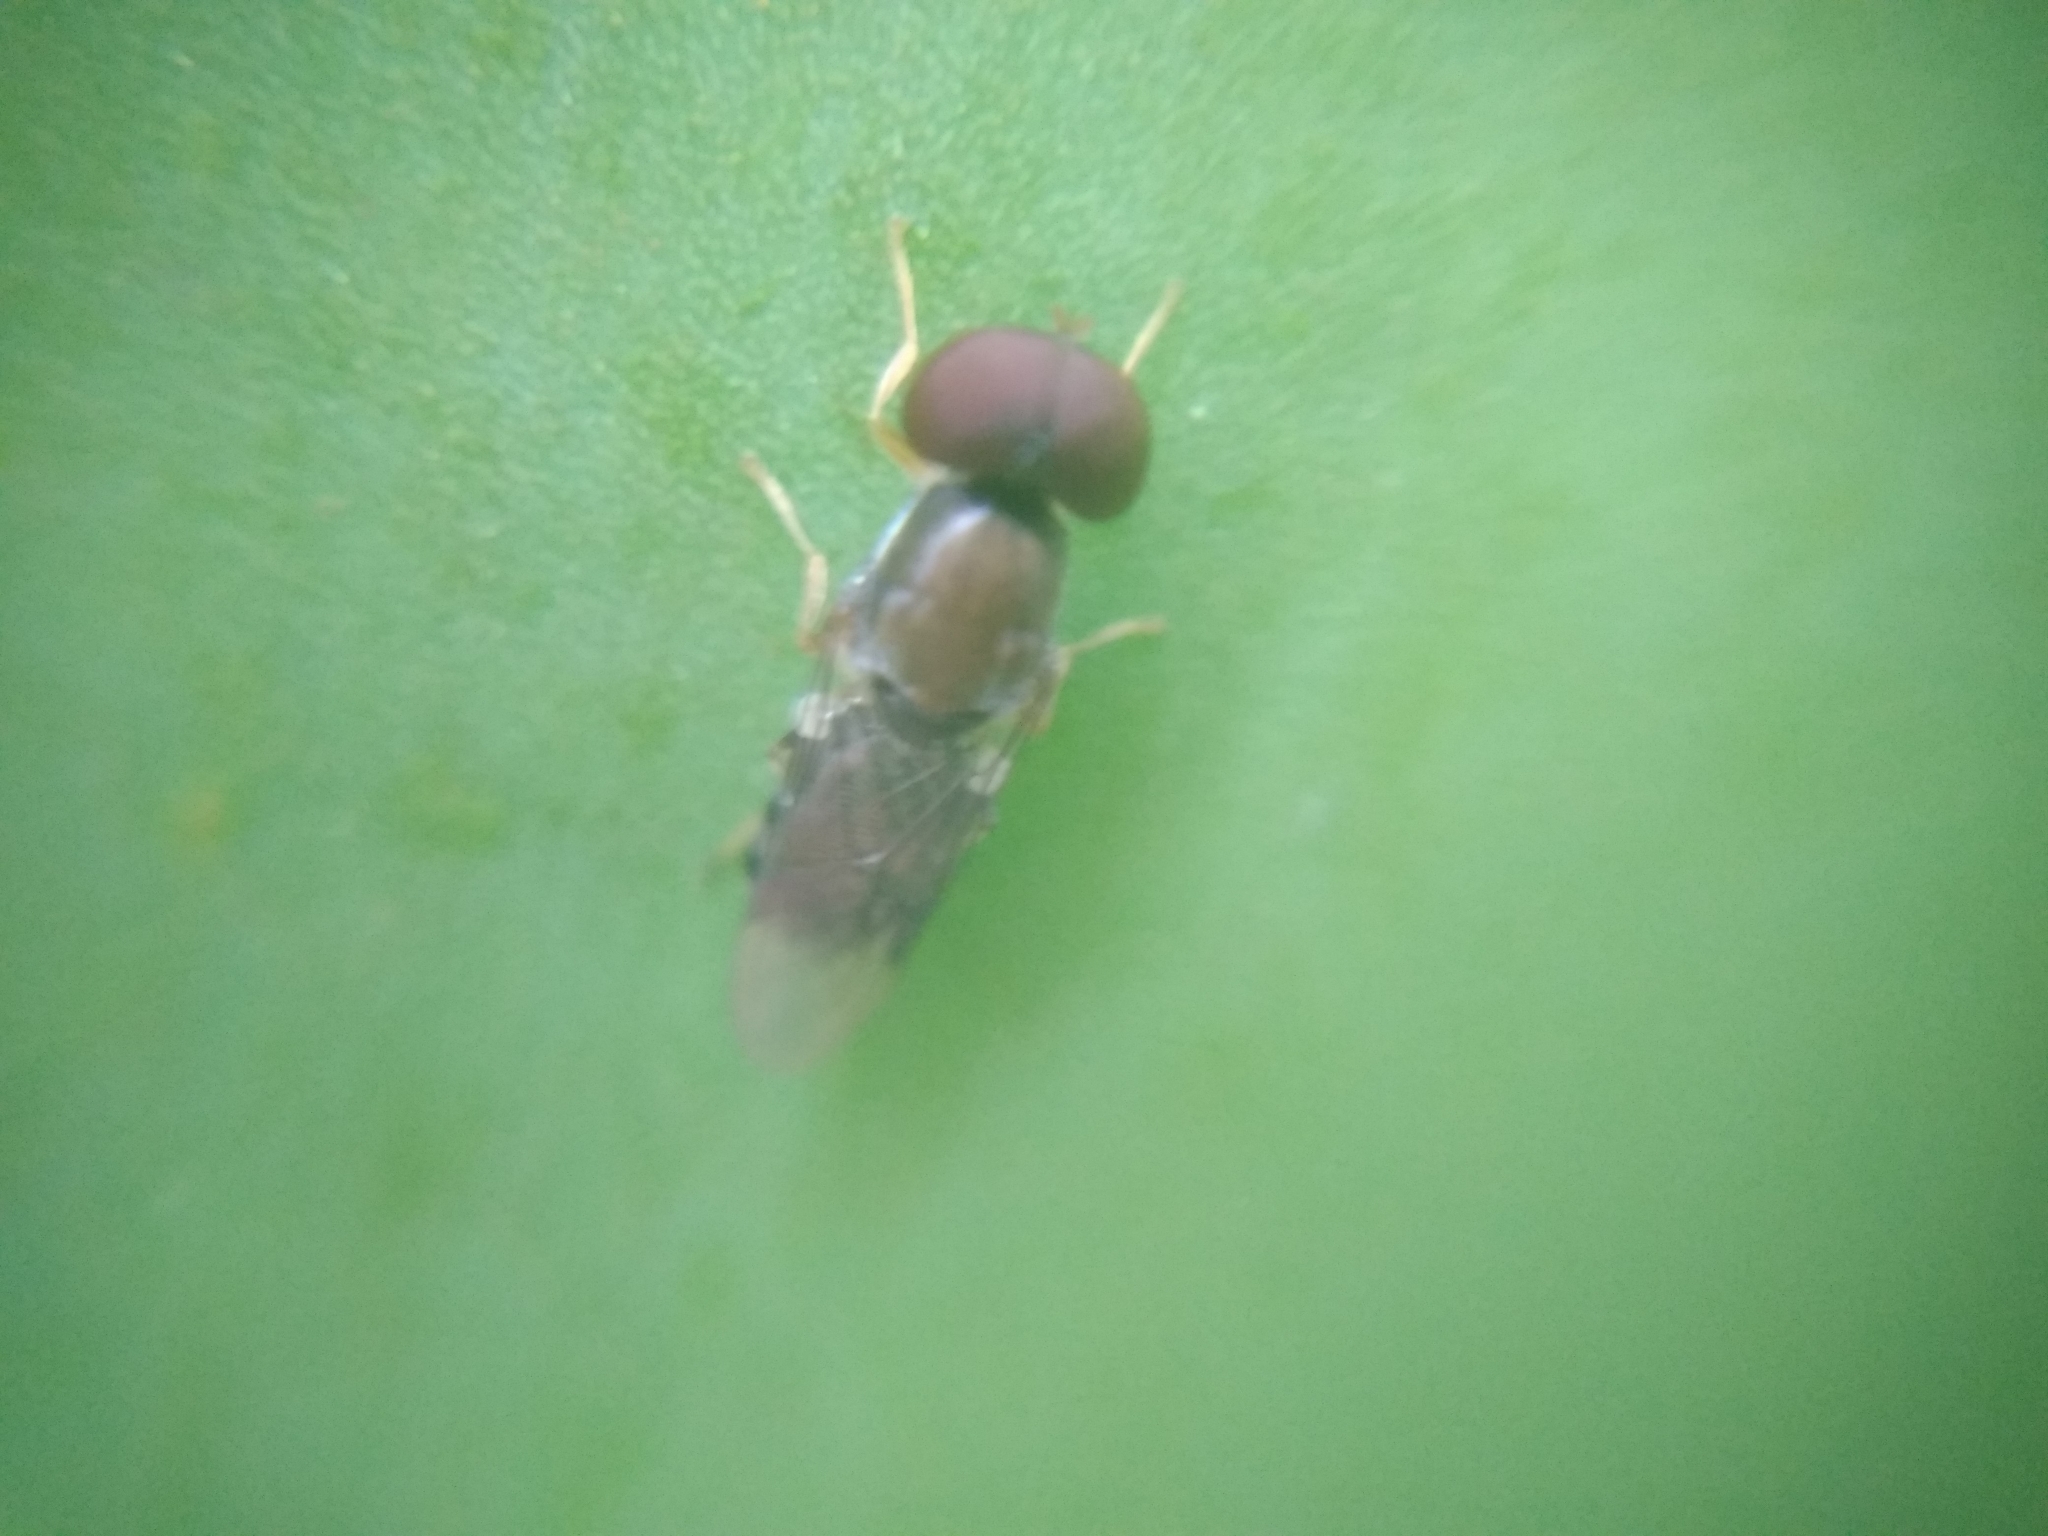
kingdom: Animalia
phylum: Arthropoda
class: Insecta
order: Diptera
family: Stratiomyidae
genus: Cephalochrysa
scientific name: Cephalochrysa calopa
